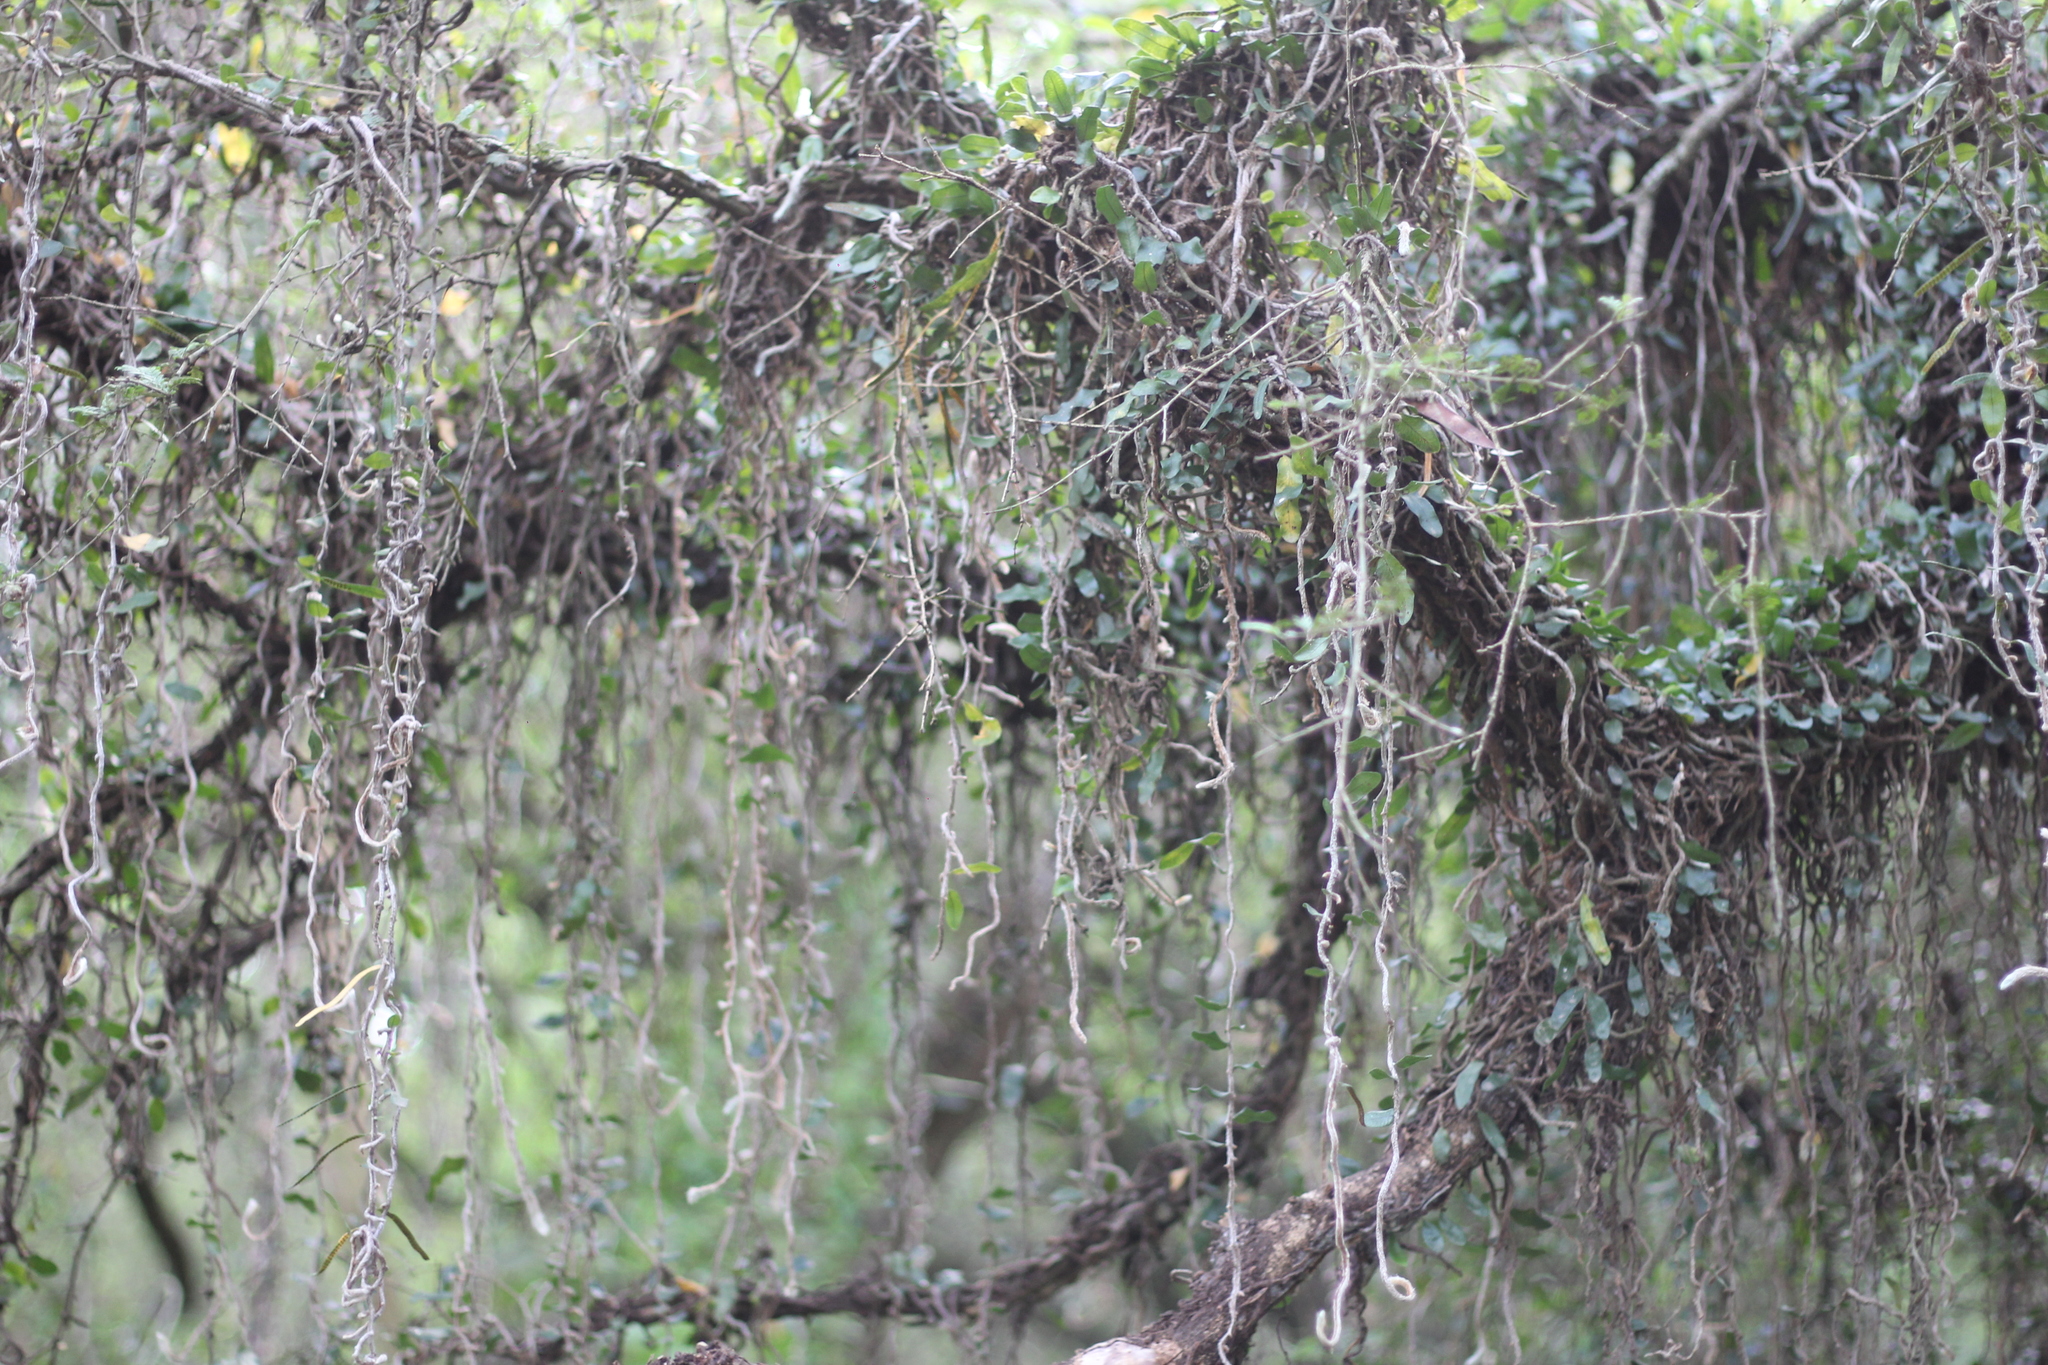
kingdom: Plantae
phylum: Tracheophyta
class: Polypodiopsida
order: Polypodiales
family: Polypodiaceae
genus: Microgramma
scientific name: Microgramma squamulosa
